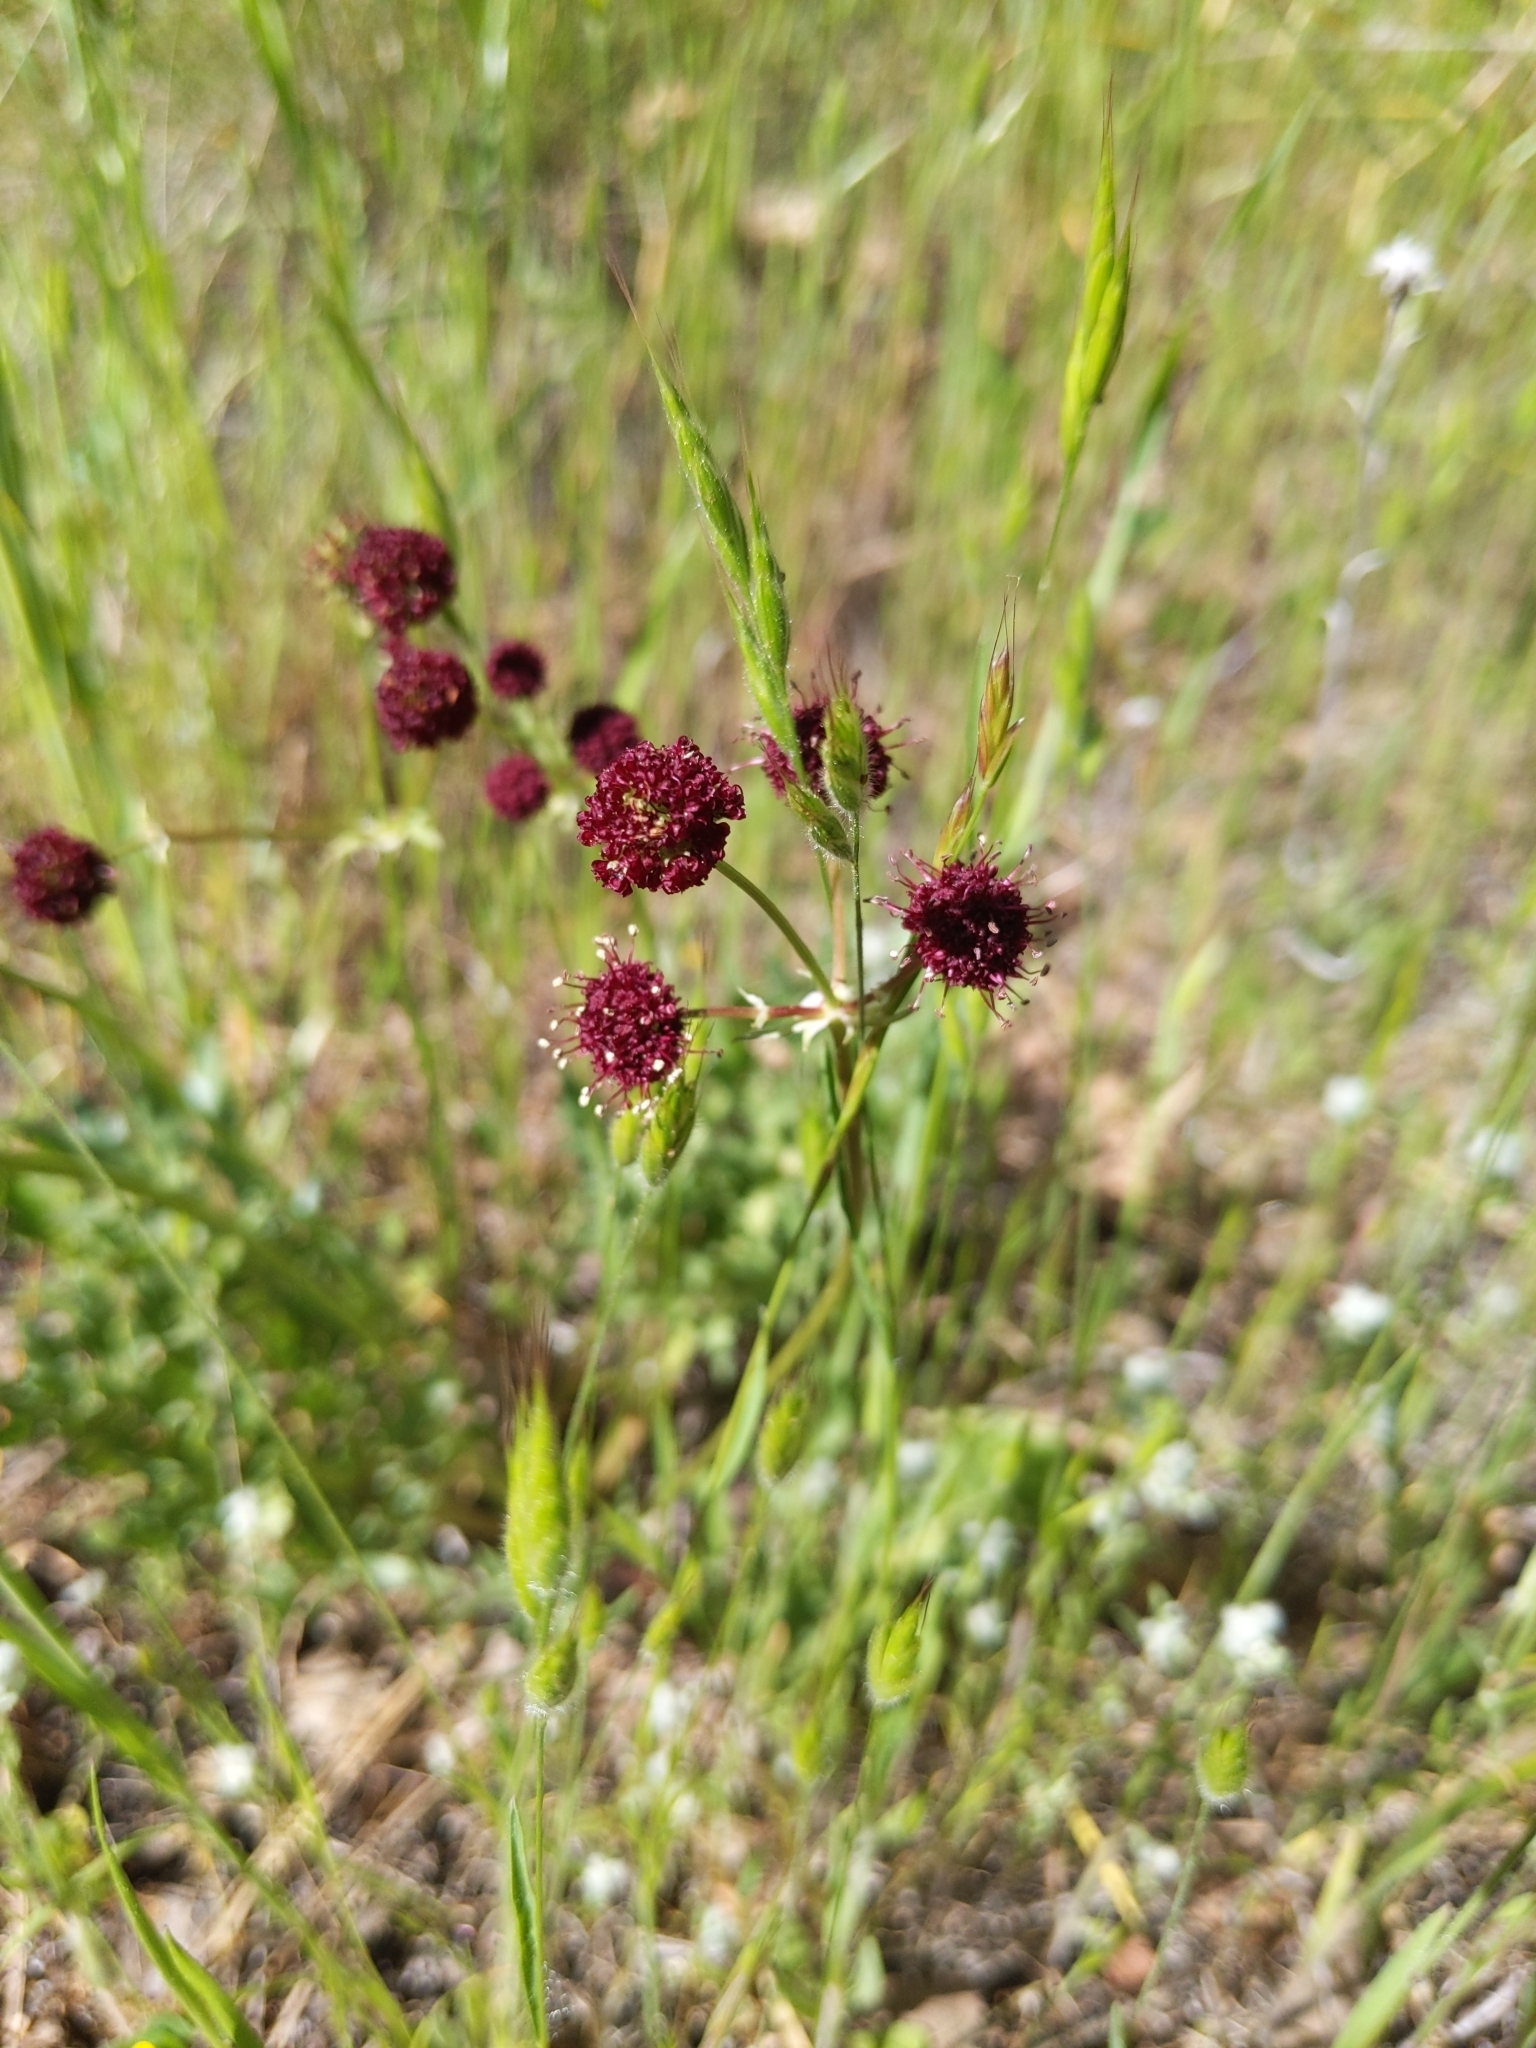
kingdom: Plantae
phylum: Tracheophyta
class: Magnoliopsida
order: Apiales
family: Apiaceae
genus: Sanicula
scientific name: Sanicula bipinnatifida
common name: Shoe-buttons
